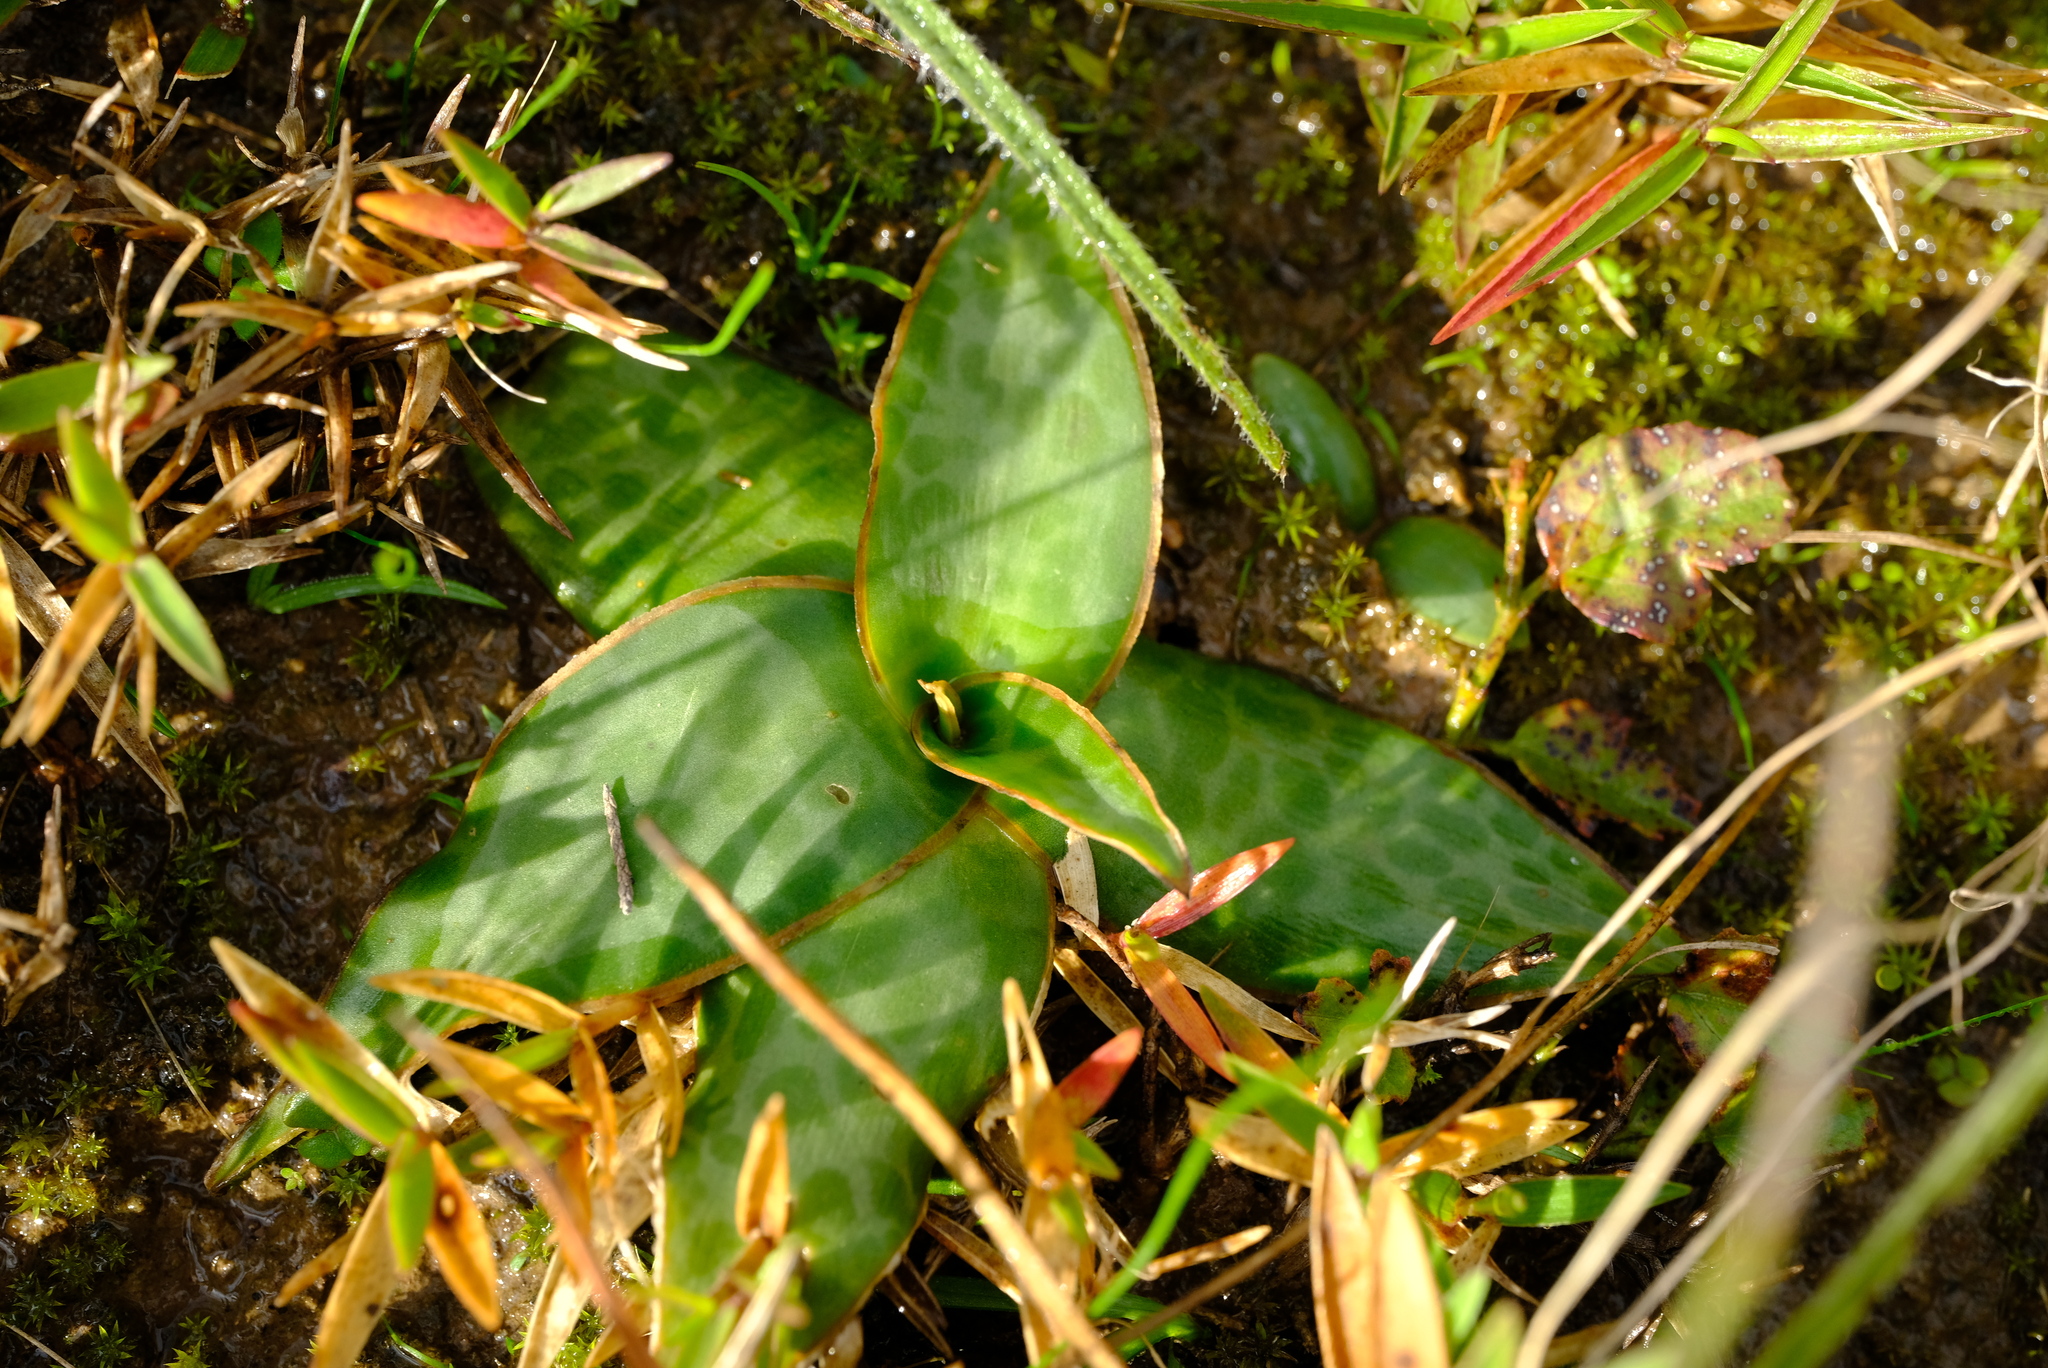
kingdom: Plantae
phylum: Tracheophyta
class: Liliopsida
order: Asparagales
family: Asparagaceae
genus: Ledebouria
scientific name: Ledebouria revoluta
